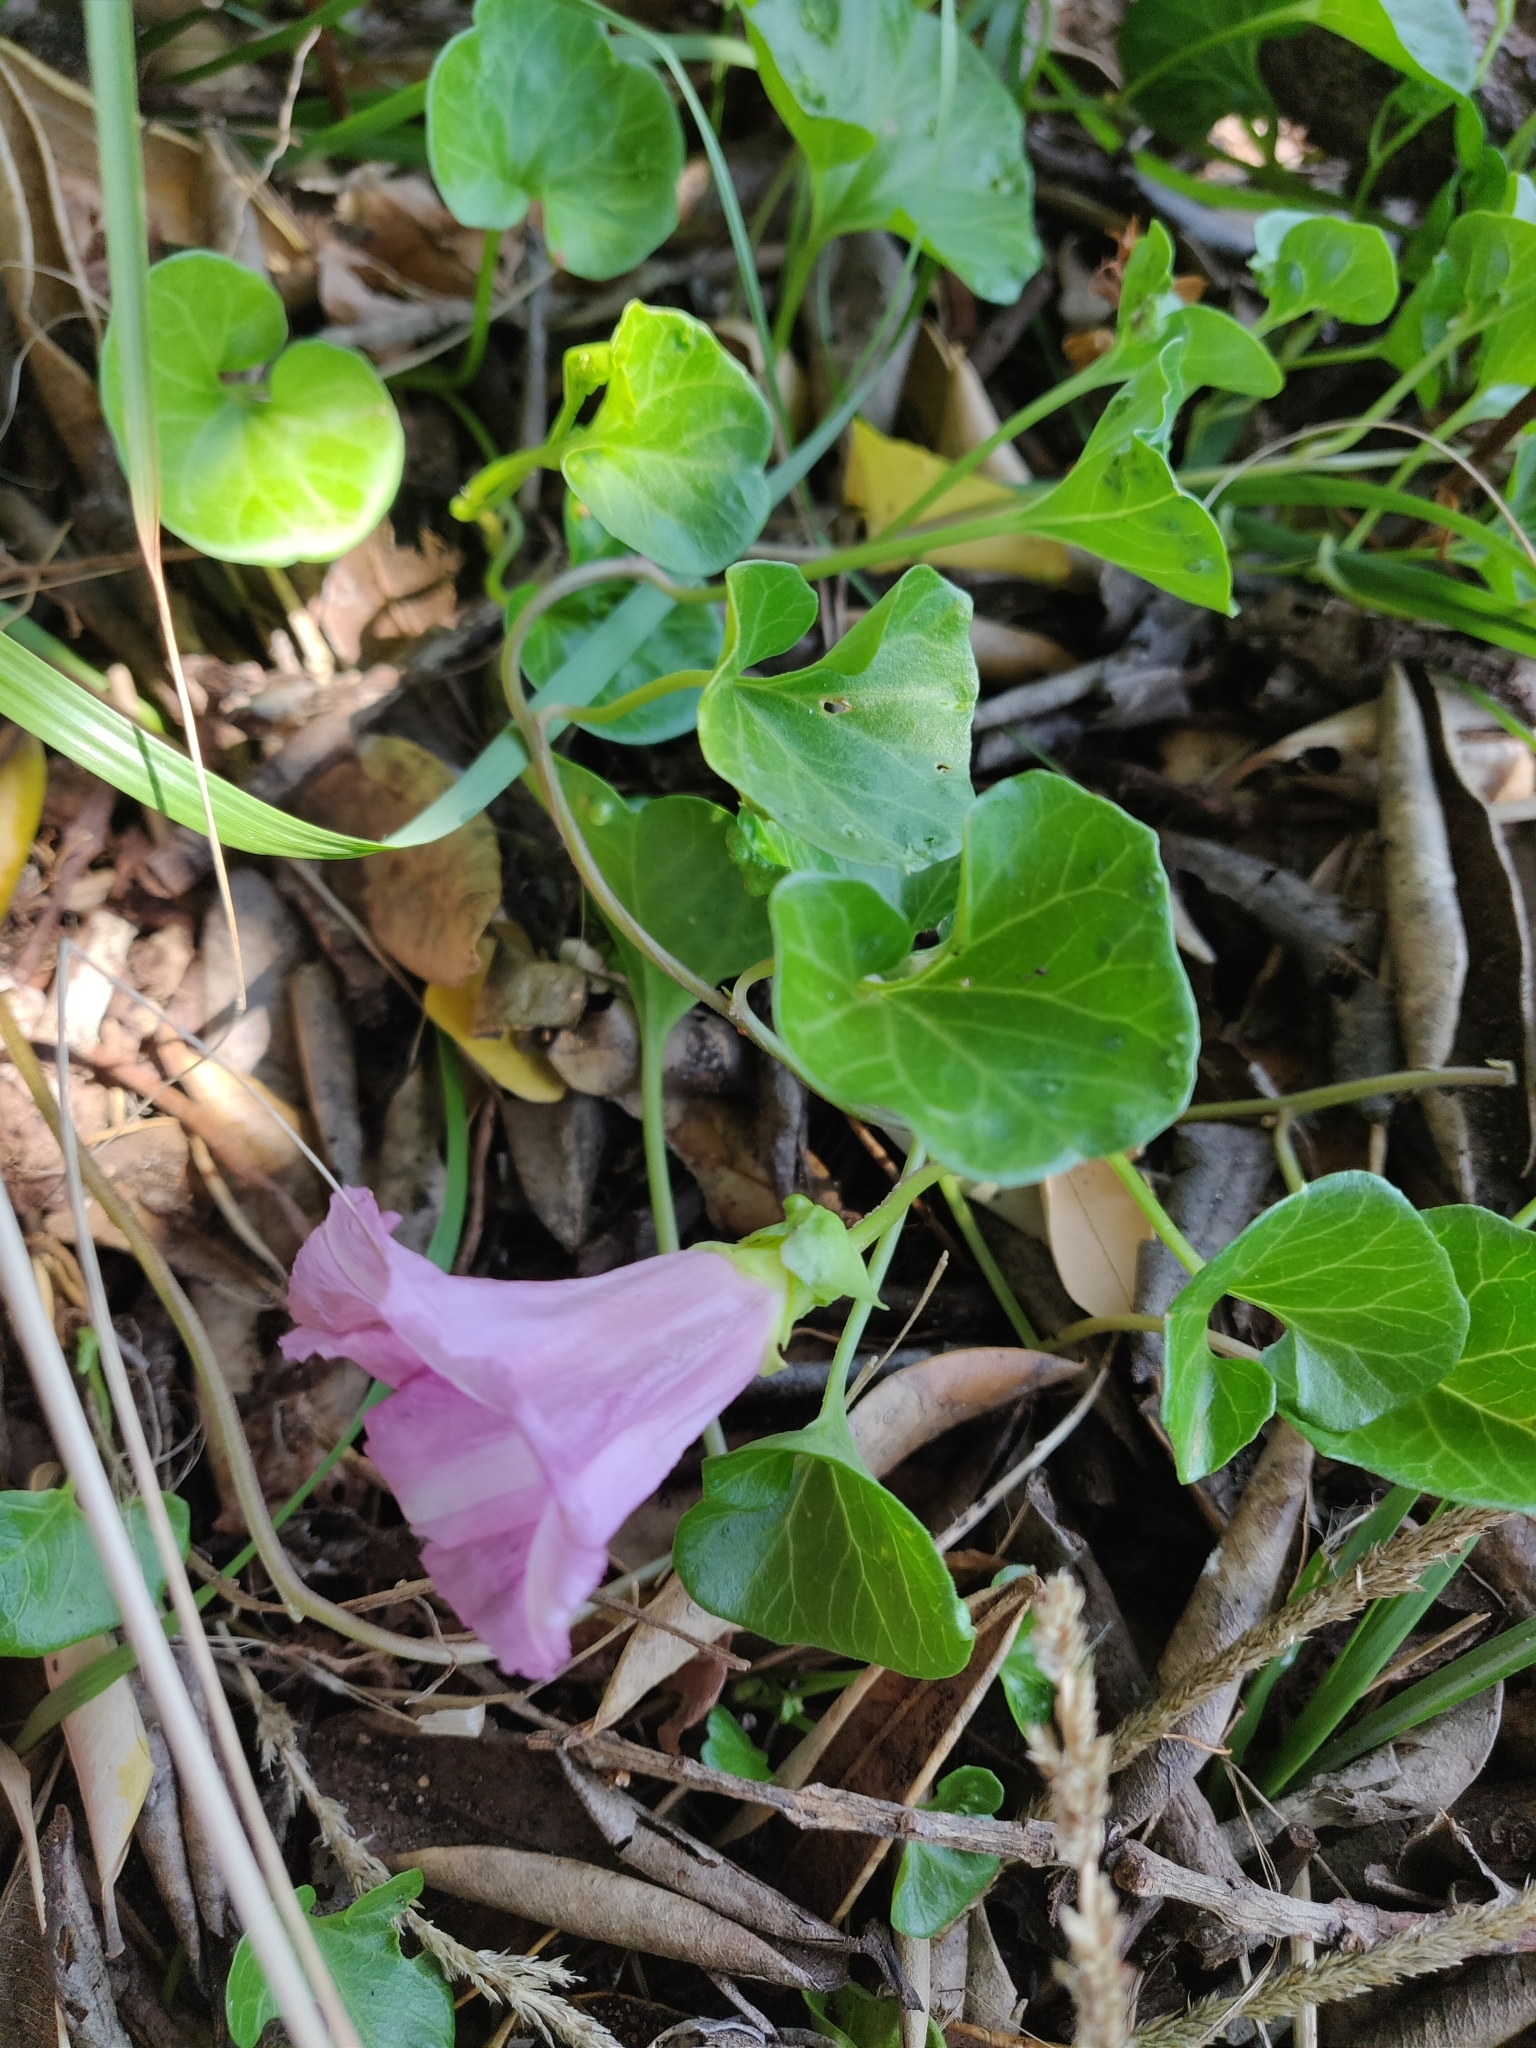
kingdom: Plantae
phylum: Tracheophyta
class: Magnoliopsida
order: Solanales
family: Convolvulaceae
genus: Calystegia
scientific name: Calystegia soldanella
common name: Sea bindweed
